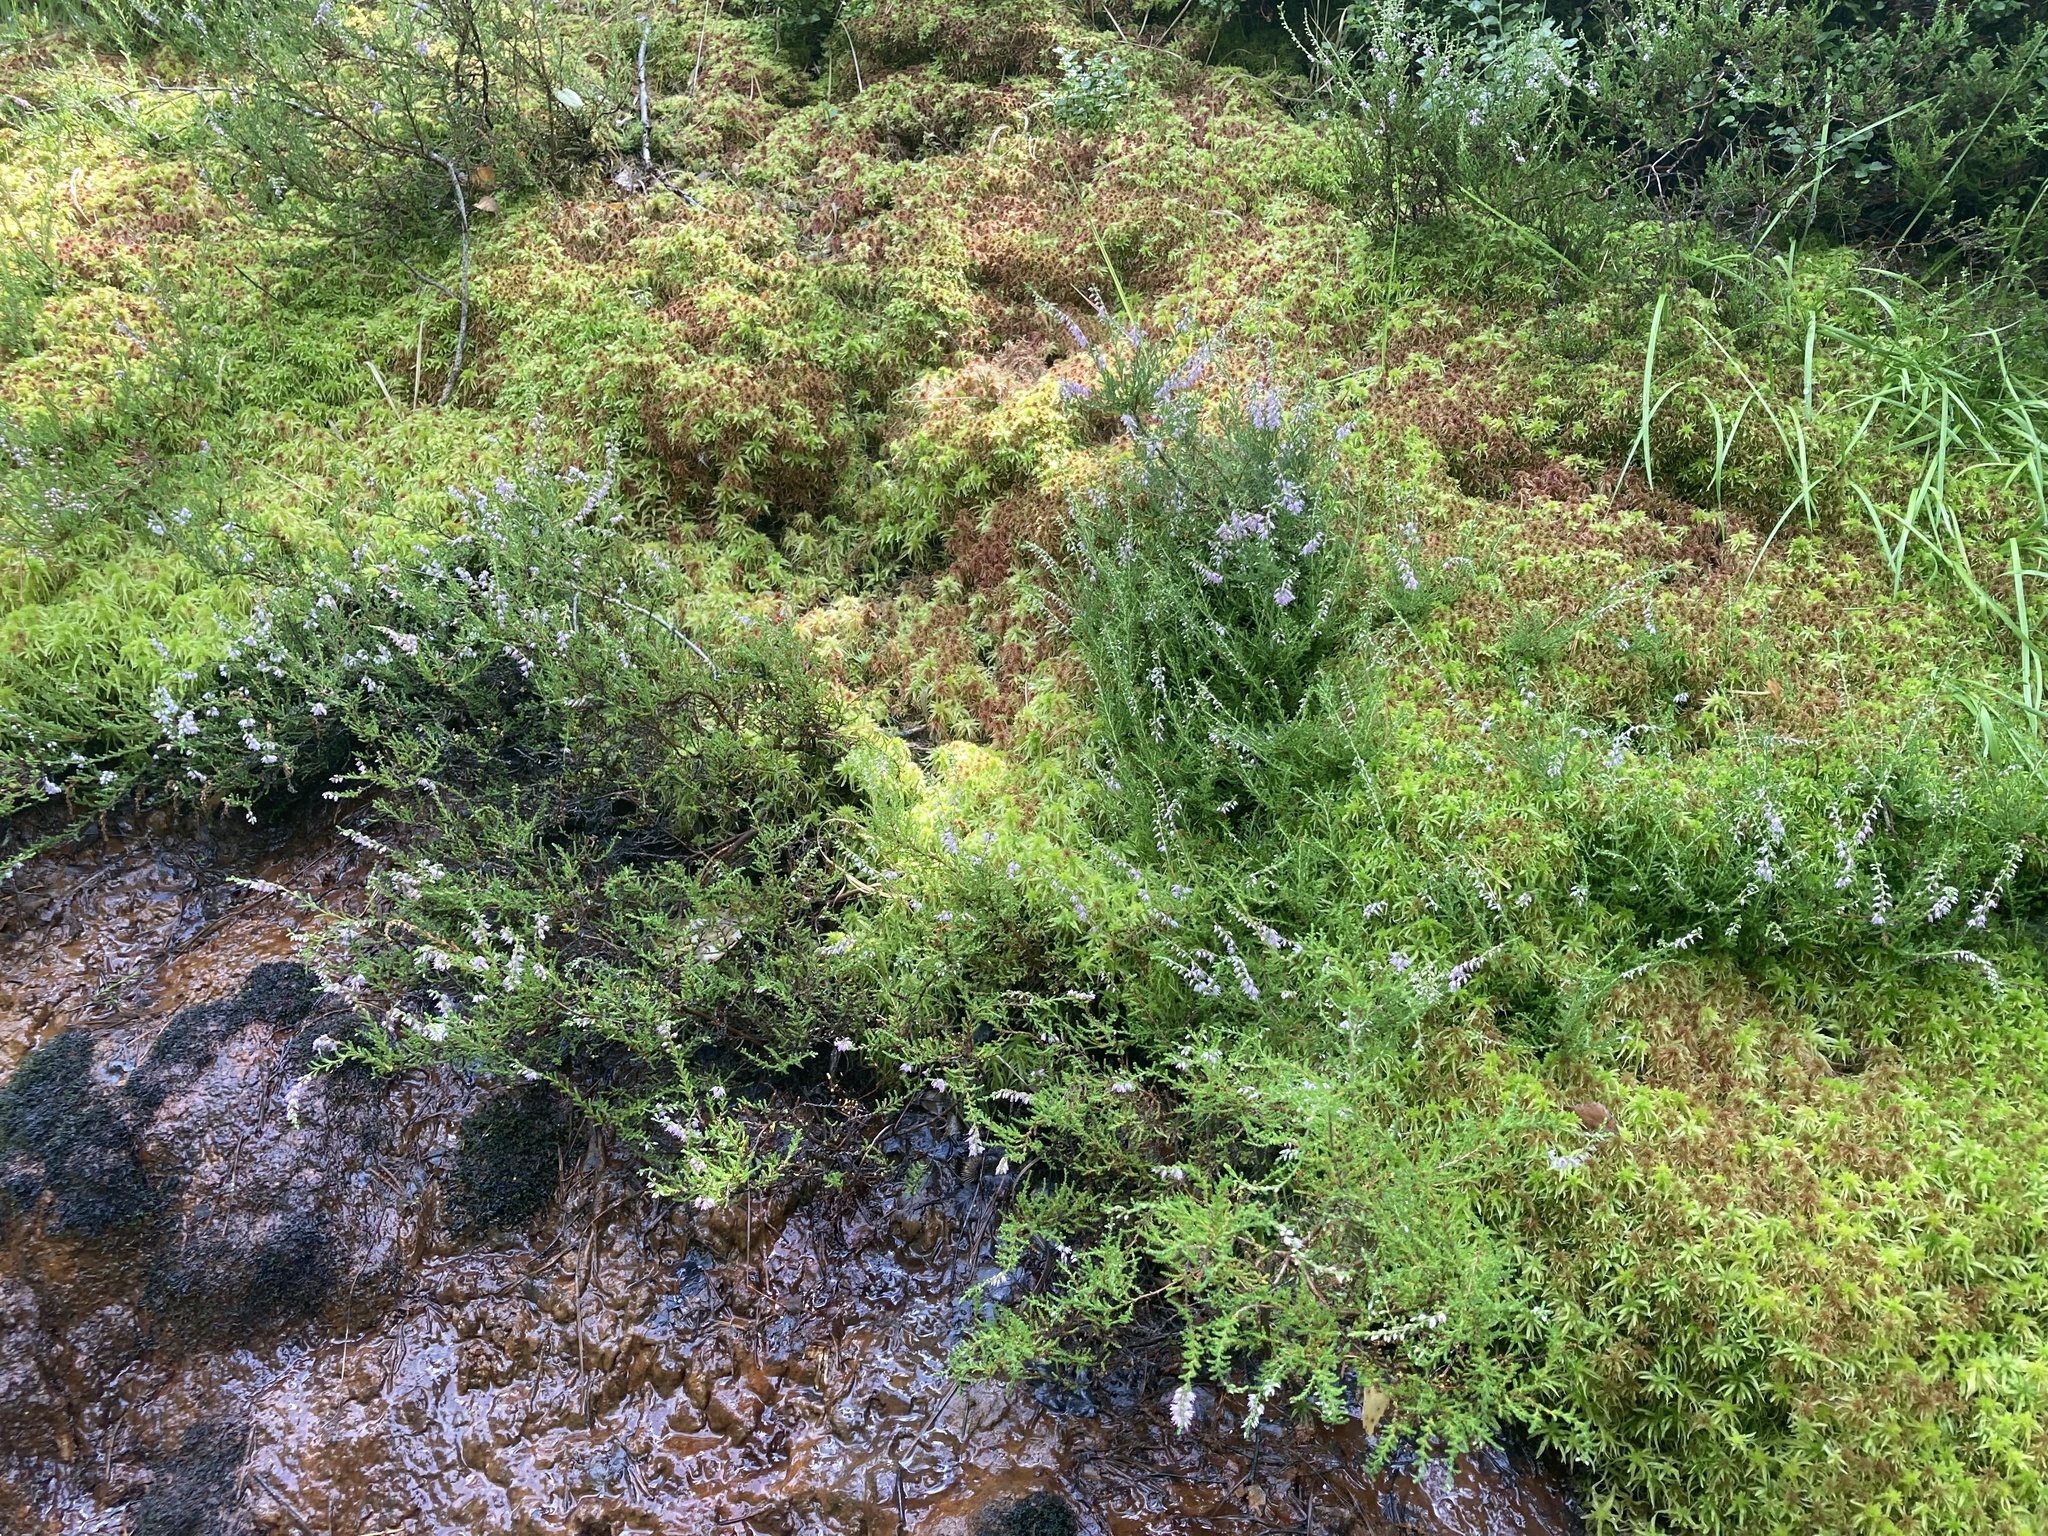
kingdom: Plantae
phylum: Tracheophyta
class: Magnoliopsida
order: Ericales
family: Ericaceae
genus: Calluna
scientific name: Calluna vulgaris
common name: Heather
